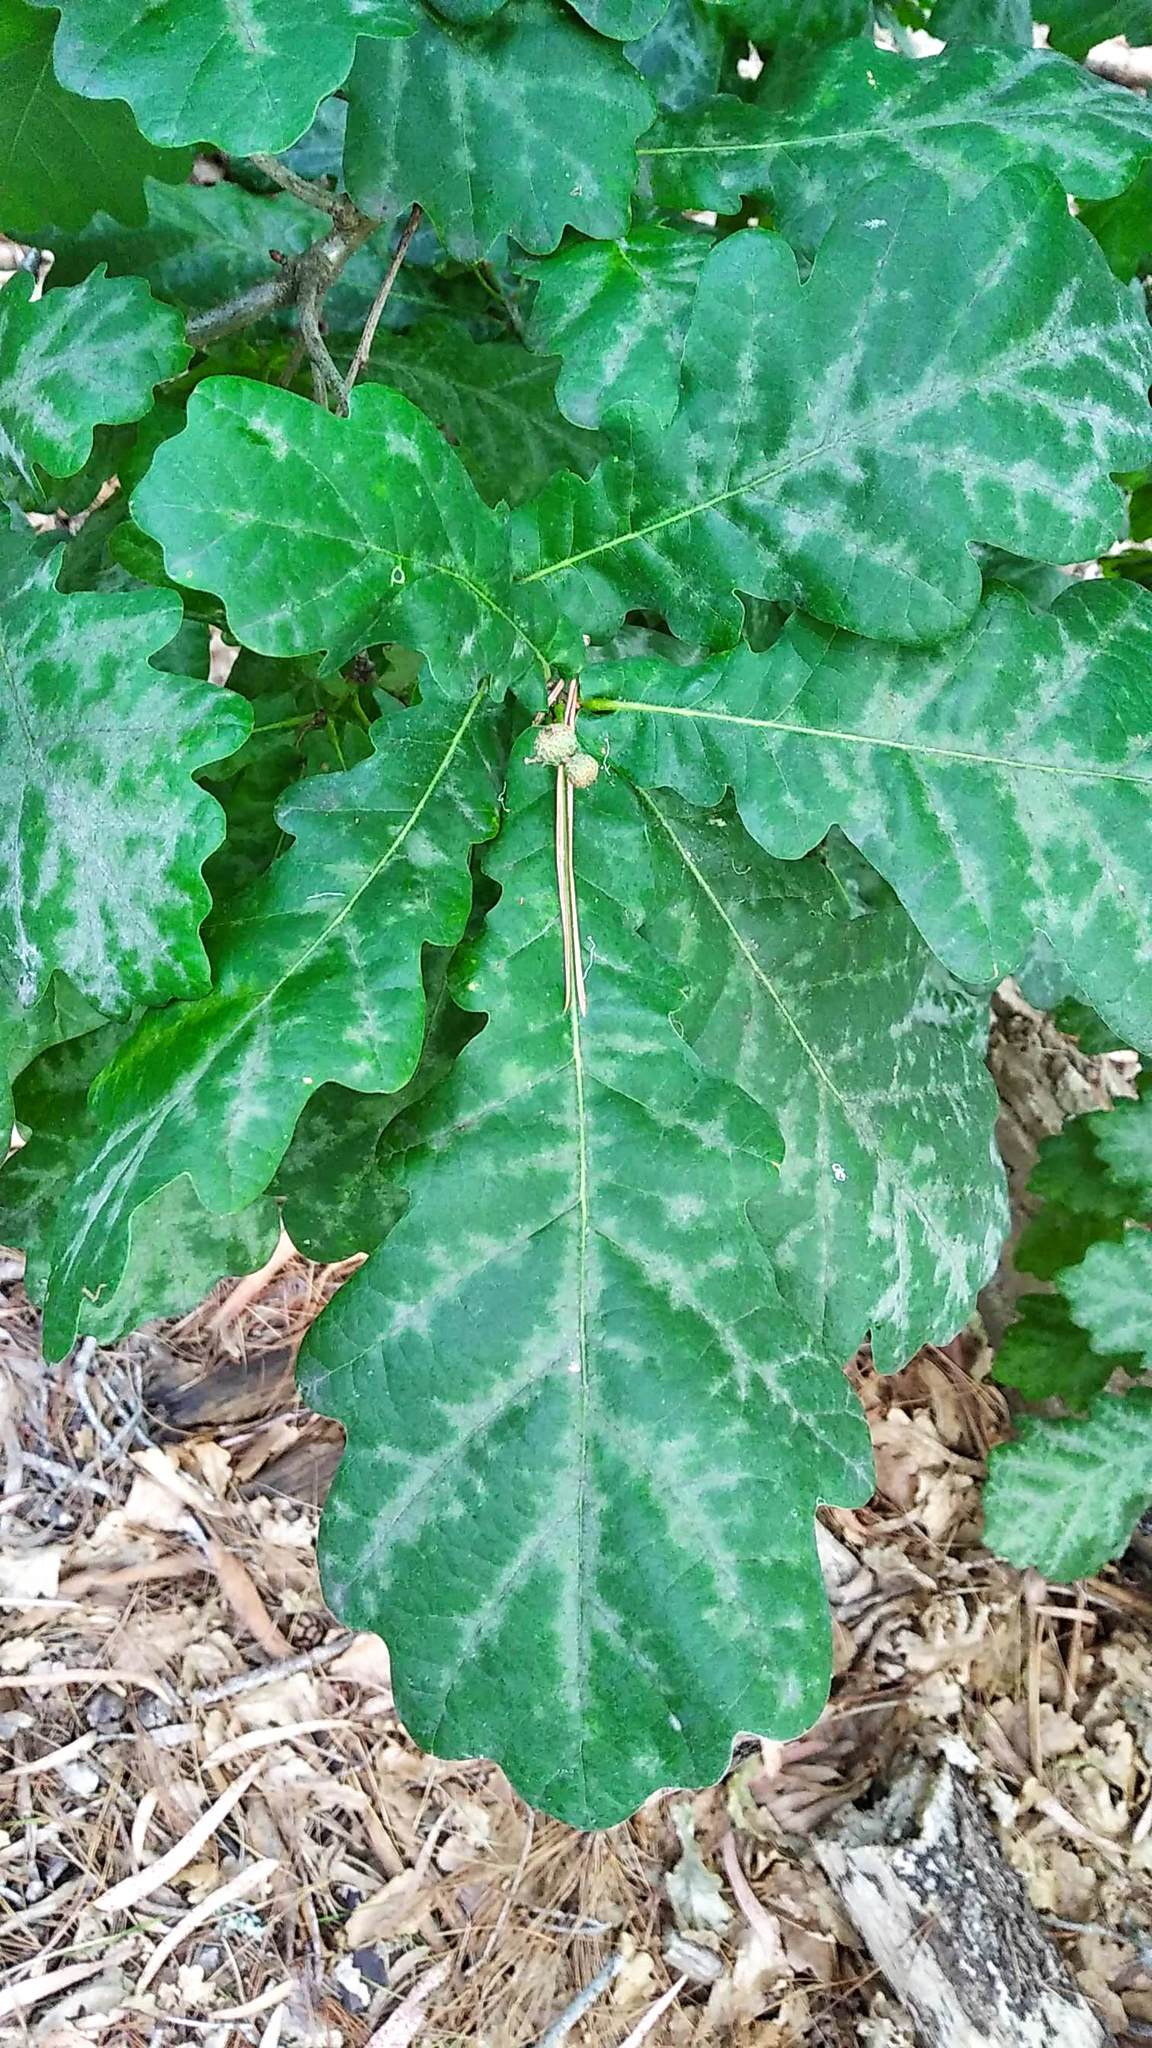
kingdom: Plantae
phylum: Tracheophyta
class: Magnoliopsida
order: Fagales
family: Fagaceae
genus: Quercus
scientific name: Quercus robur
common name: Pedunculate oak
